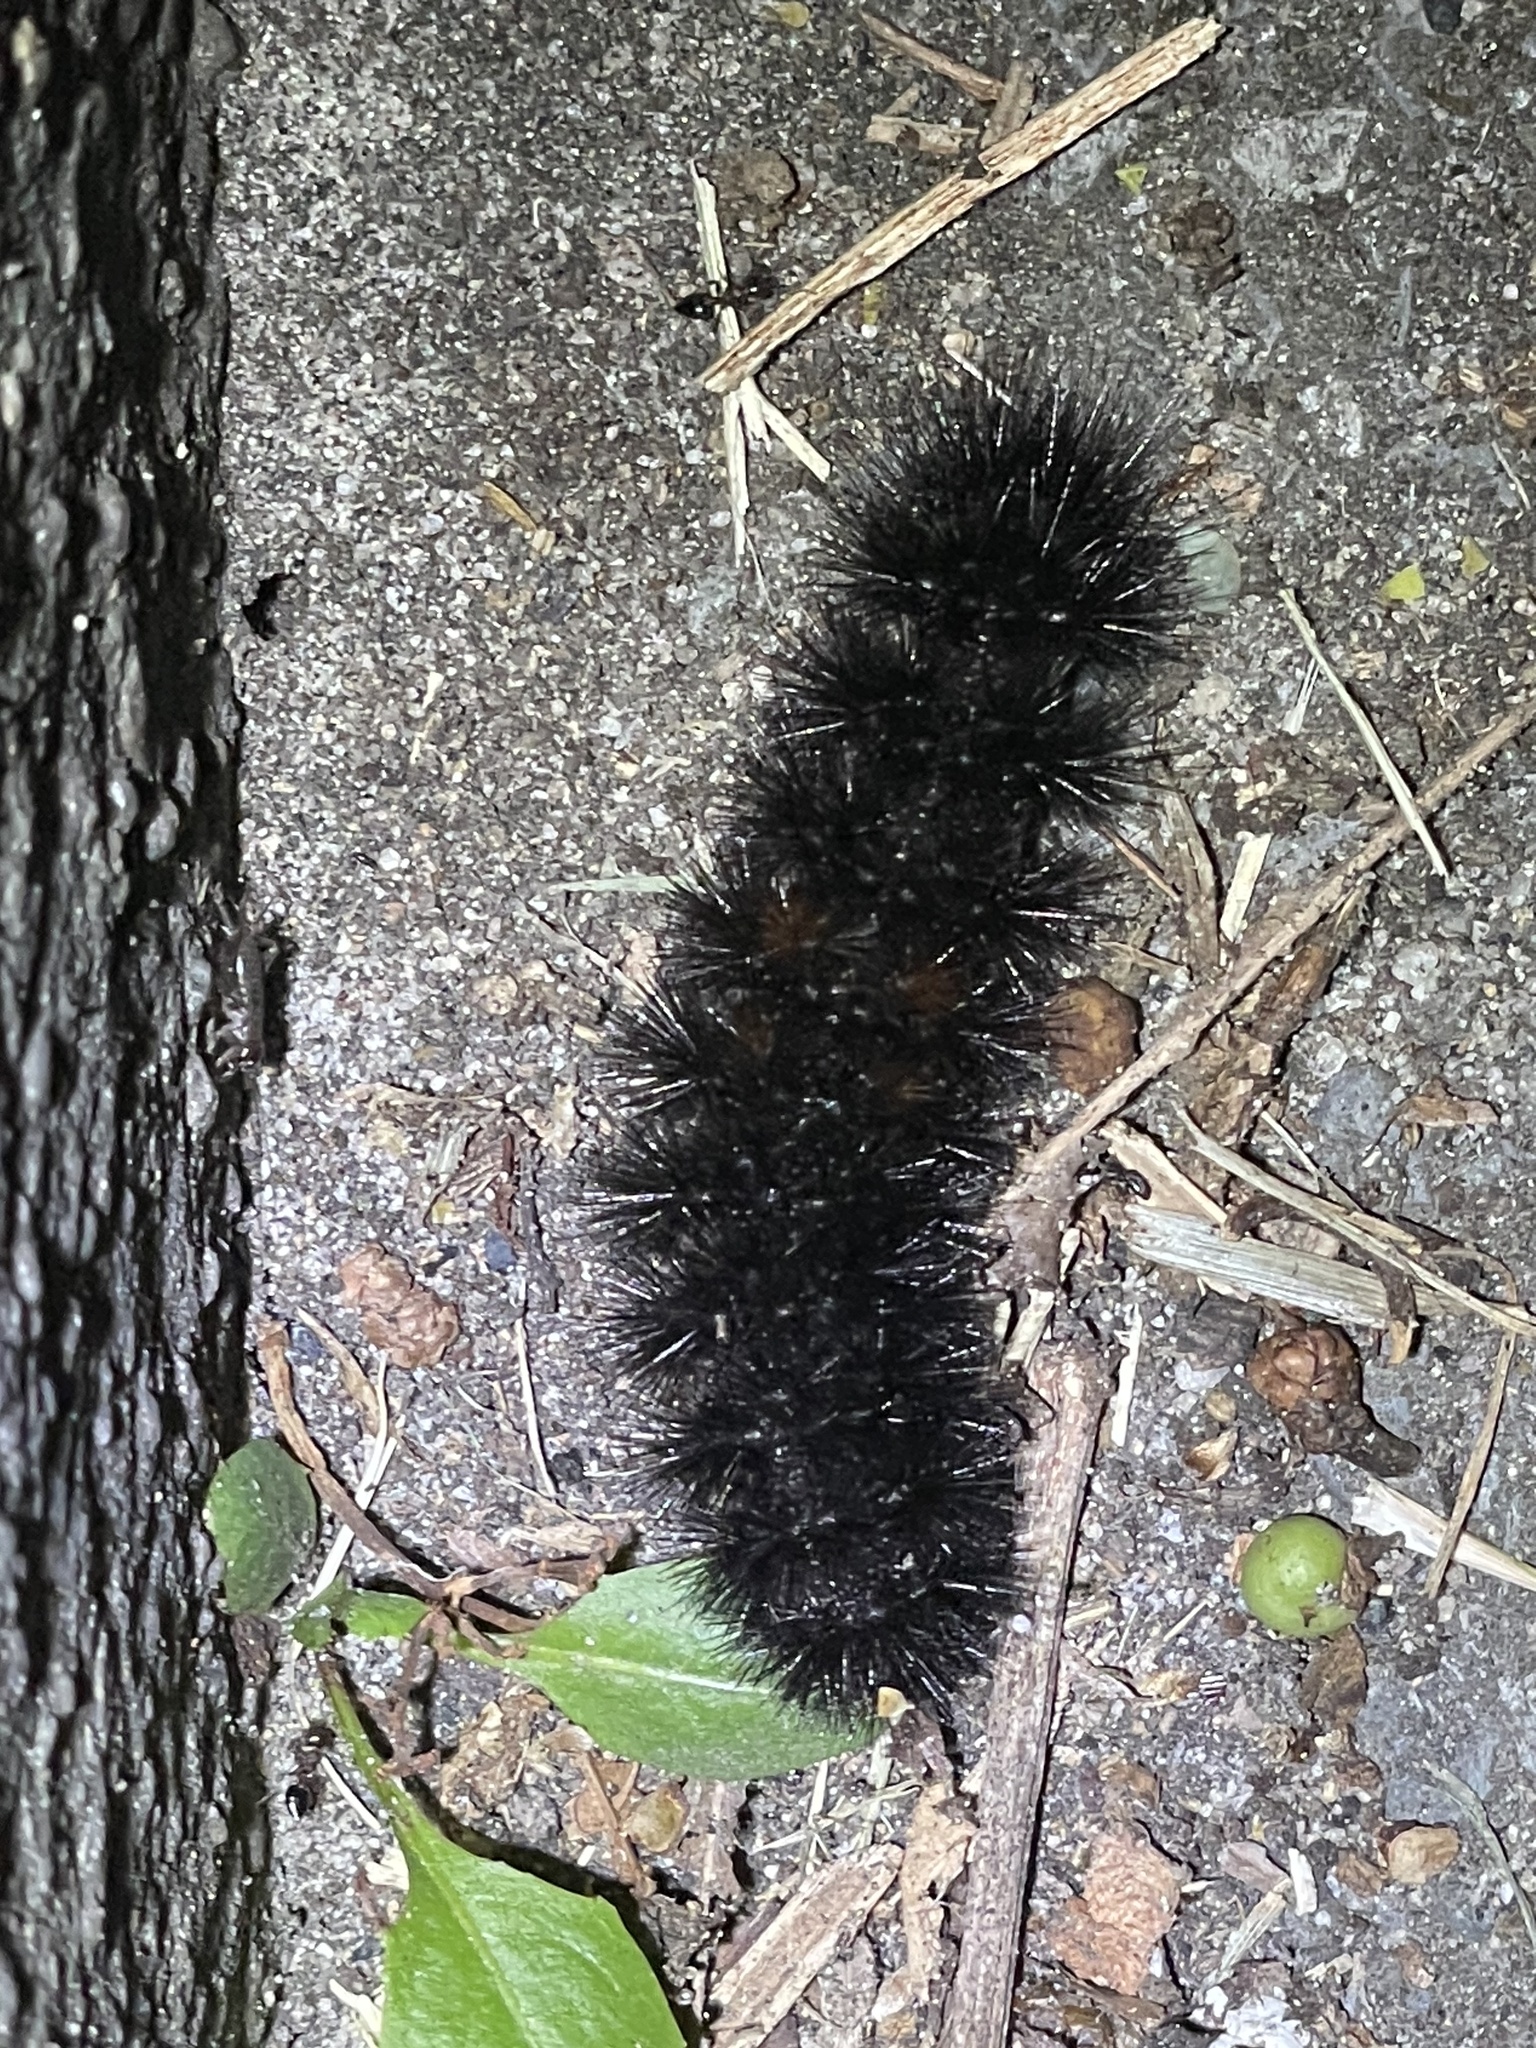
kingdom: Animalia
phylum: Arthropoda
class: Insecta
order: Lepidoptera
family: Erebidae
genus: Hypercompe
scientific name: Hypercompe scribonia
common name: Giant leopard moth
